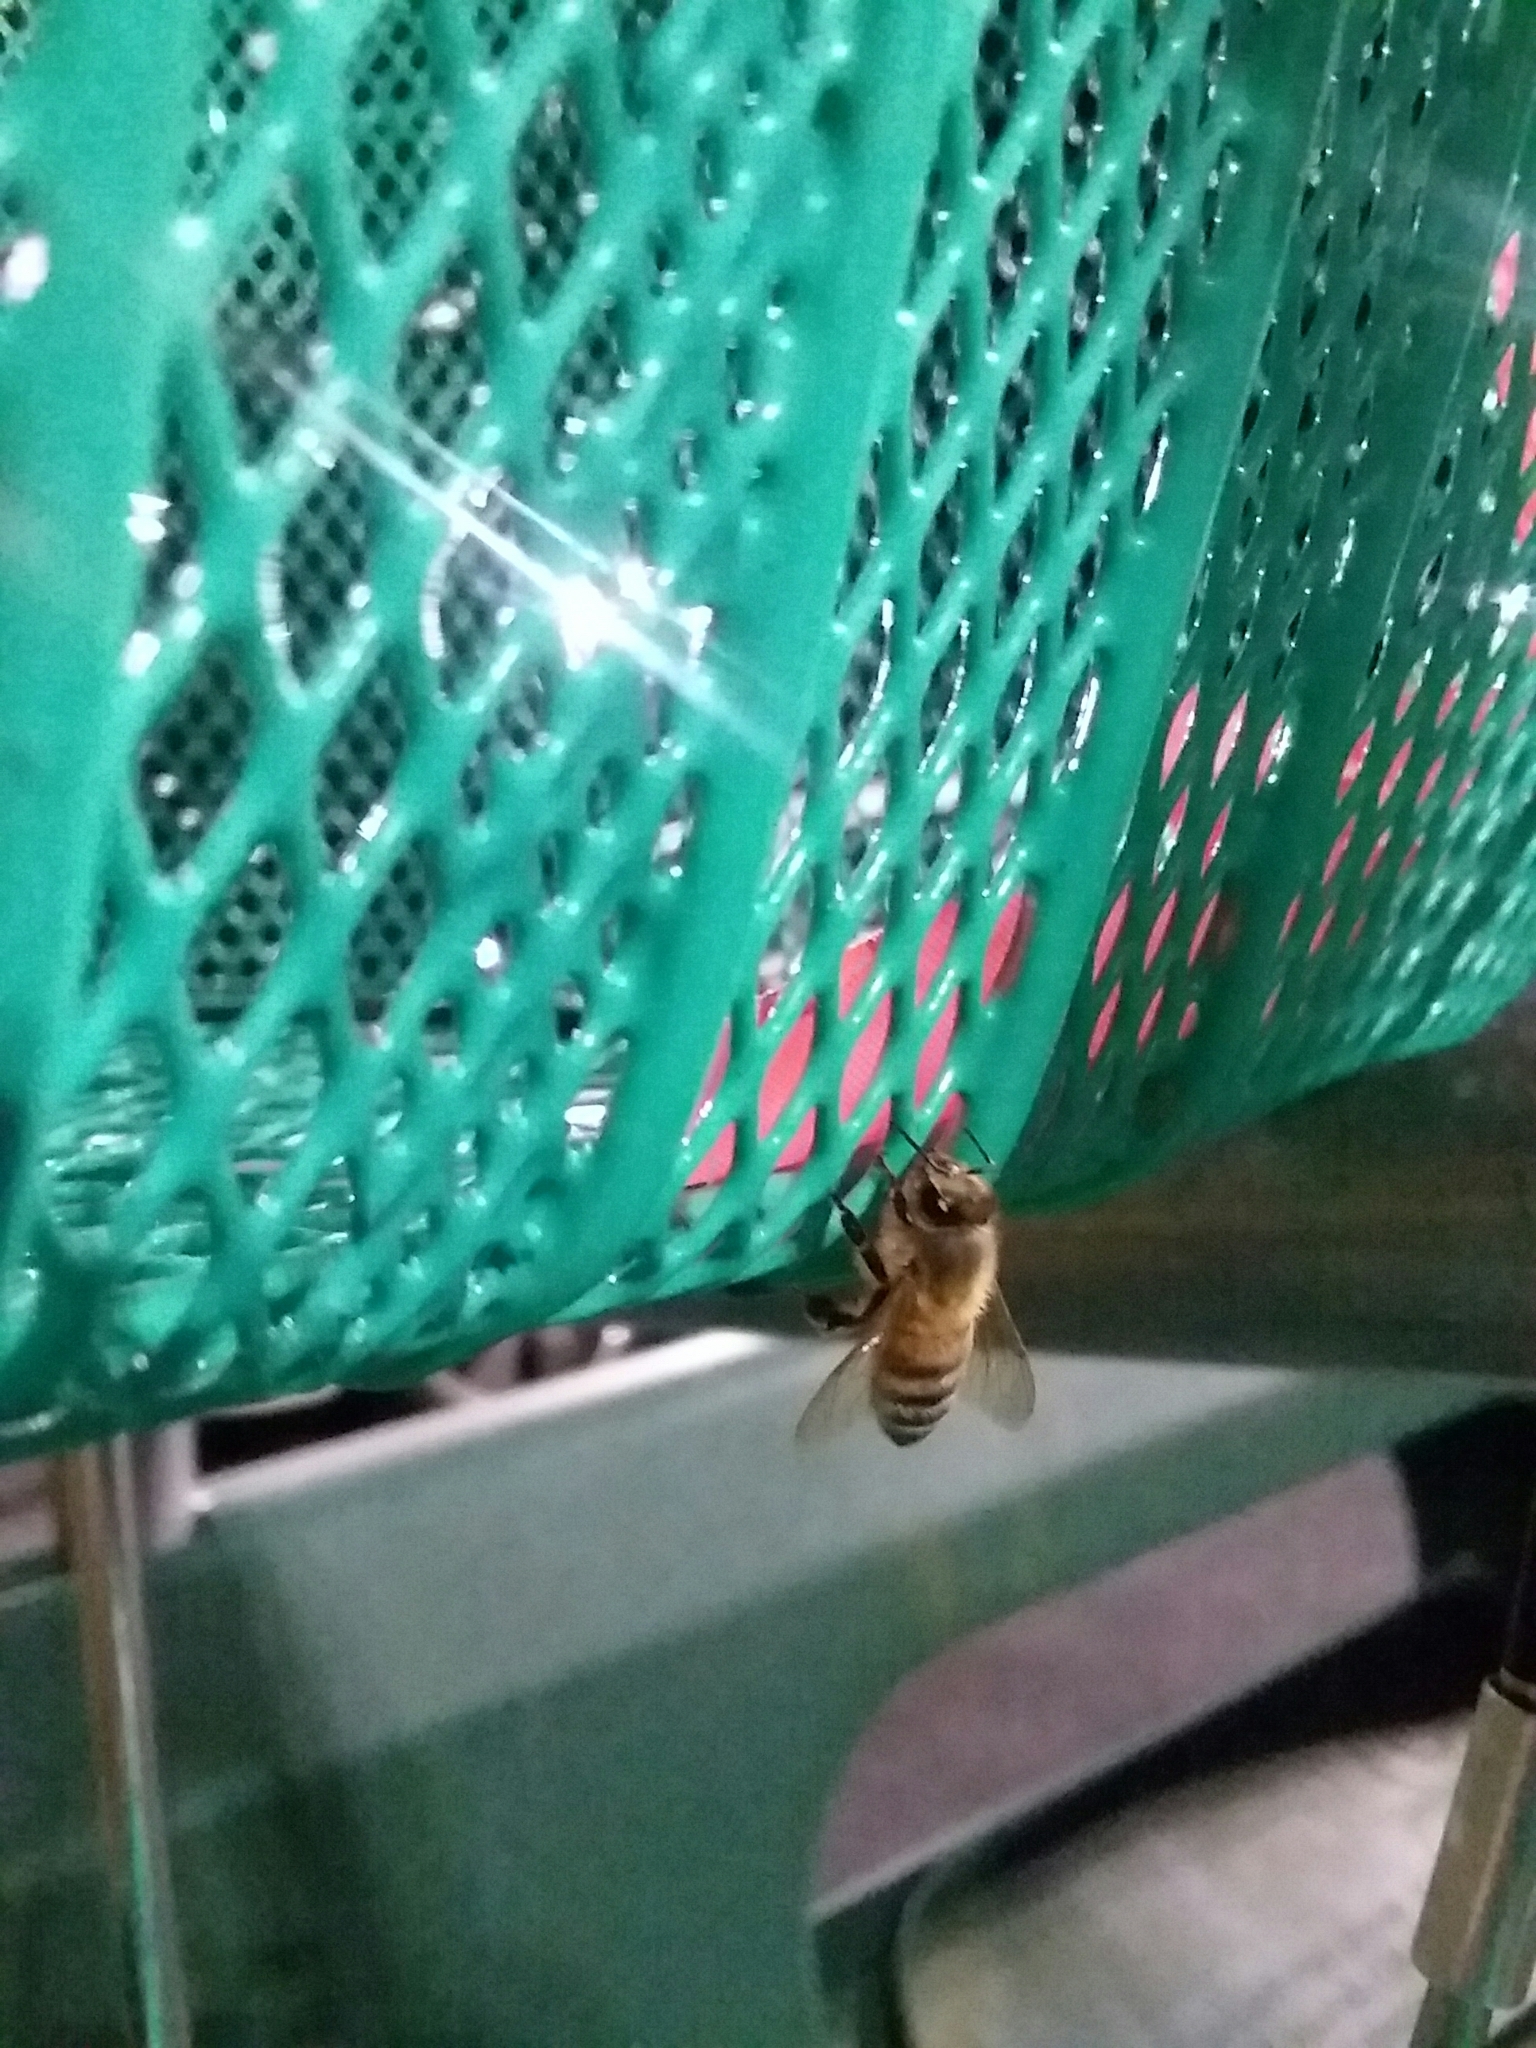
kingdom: Animalia
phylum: Arthropoda
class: Insecta
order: Hymenoptera
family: Apidae
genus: Apis
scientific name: Apis mellifera
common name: Honey bee
